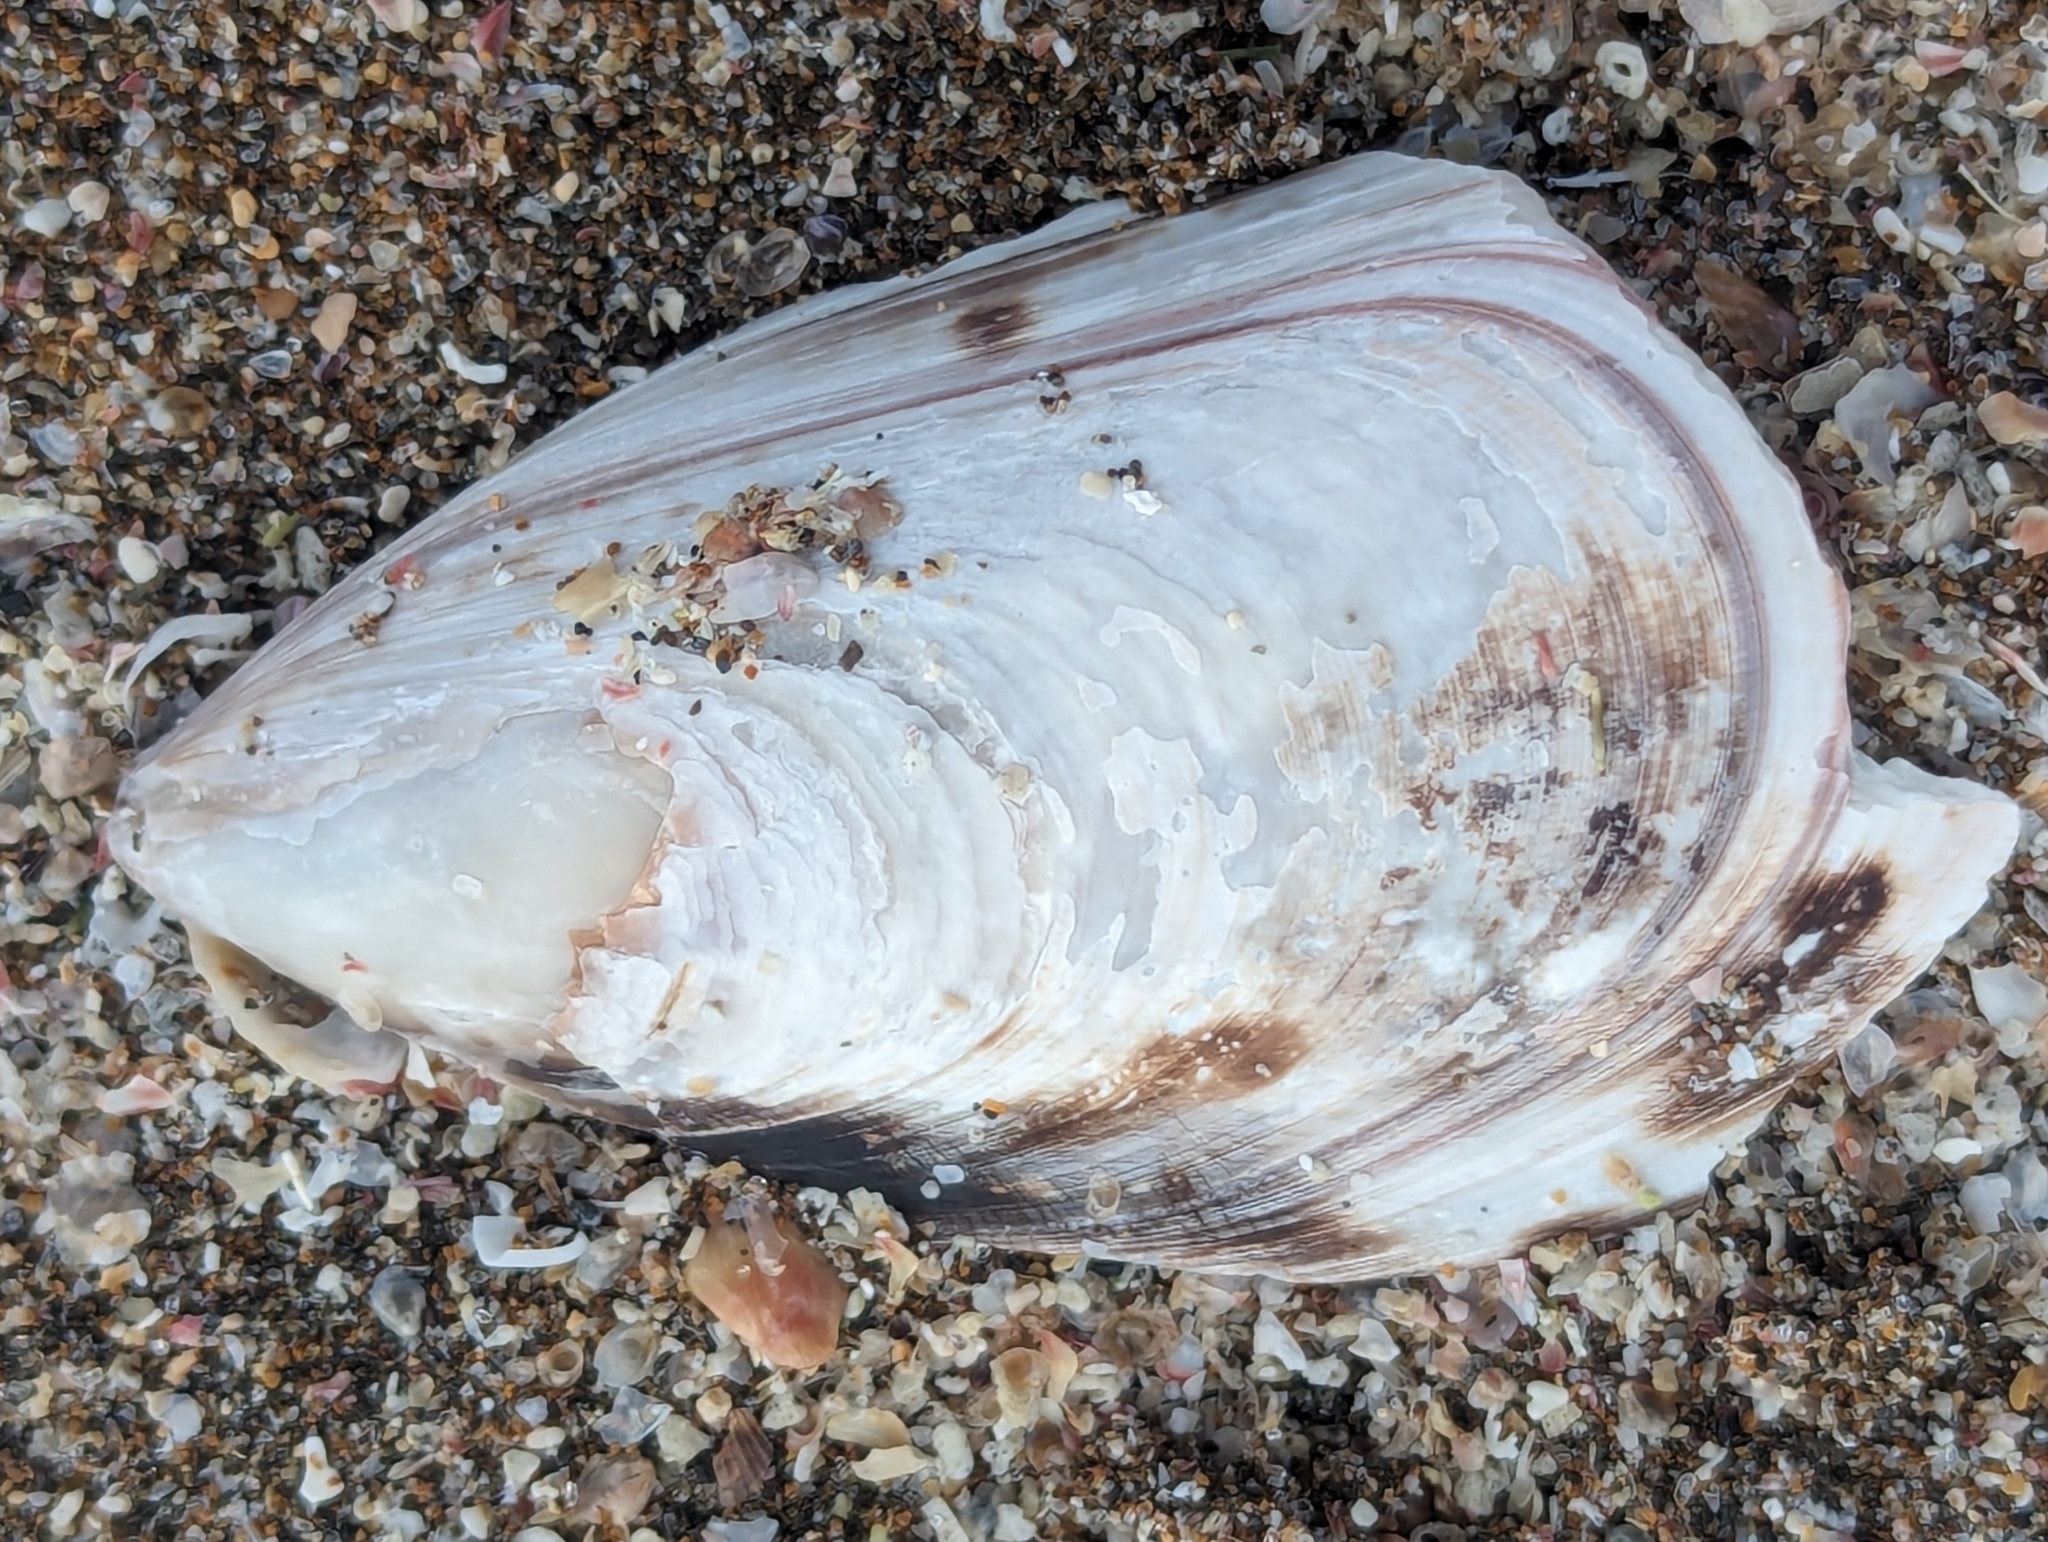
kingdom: Animalia
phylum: Mollusca
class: Bivalvia
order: Mytilida
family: Mytilidae
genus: Perna
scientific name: Perna canaliculus
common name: New zealand greenshelltm
